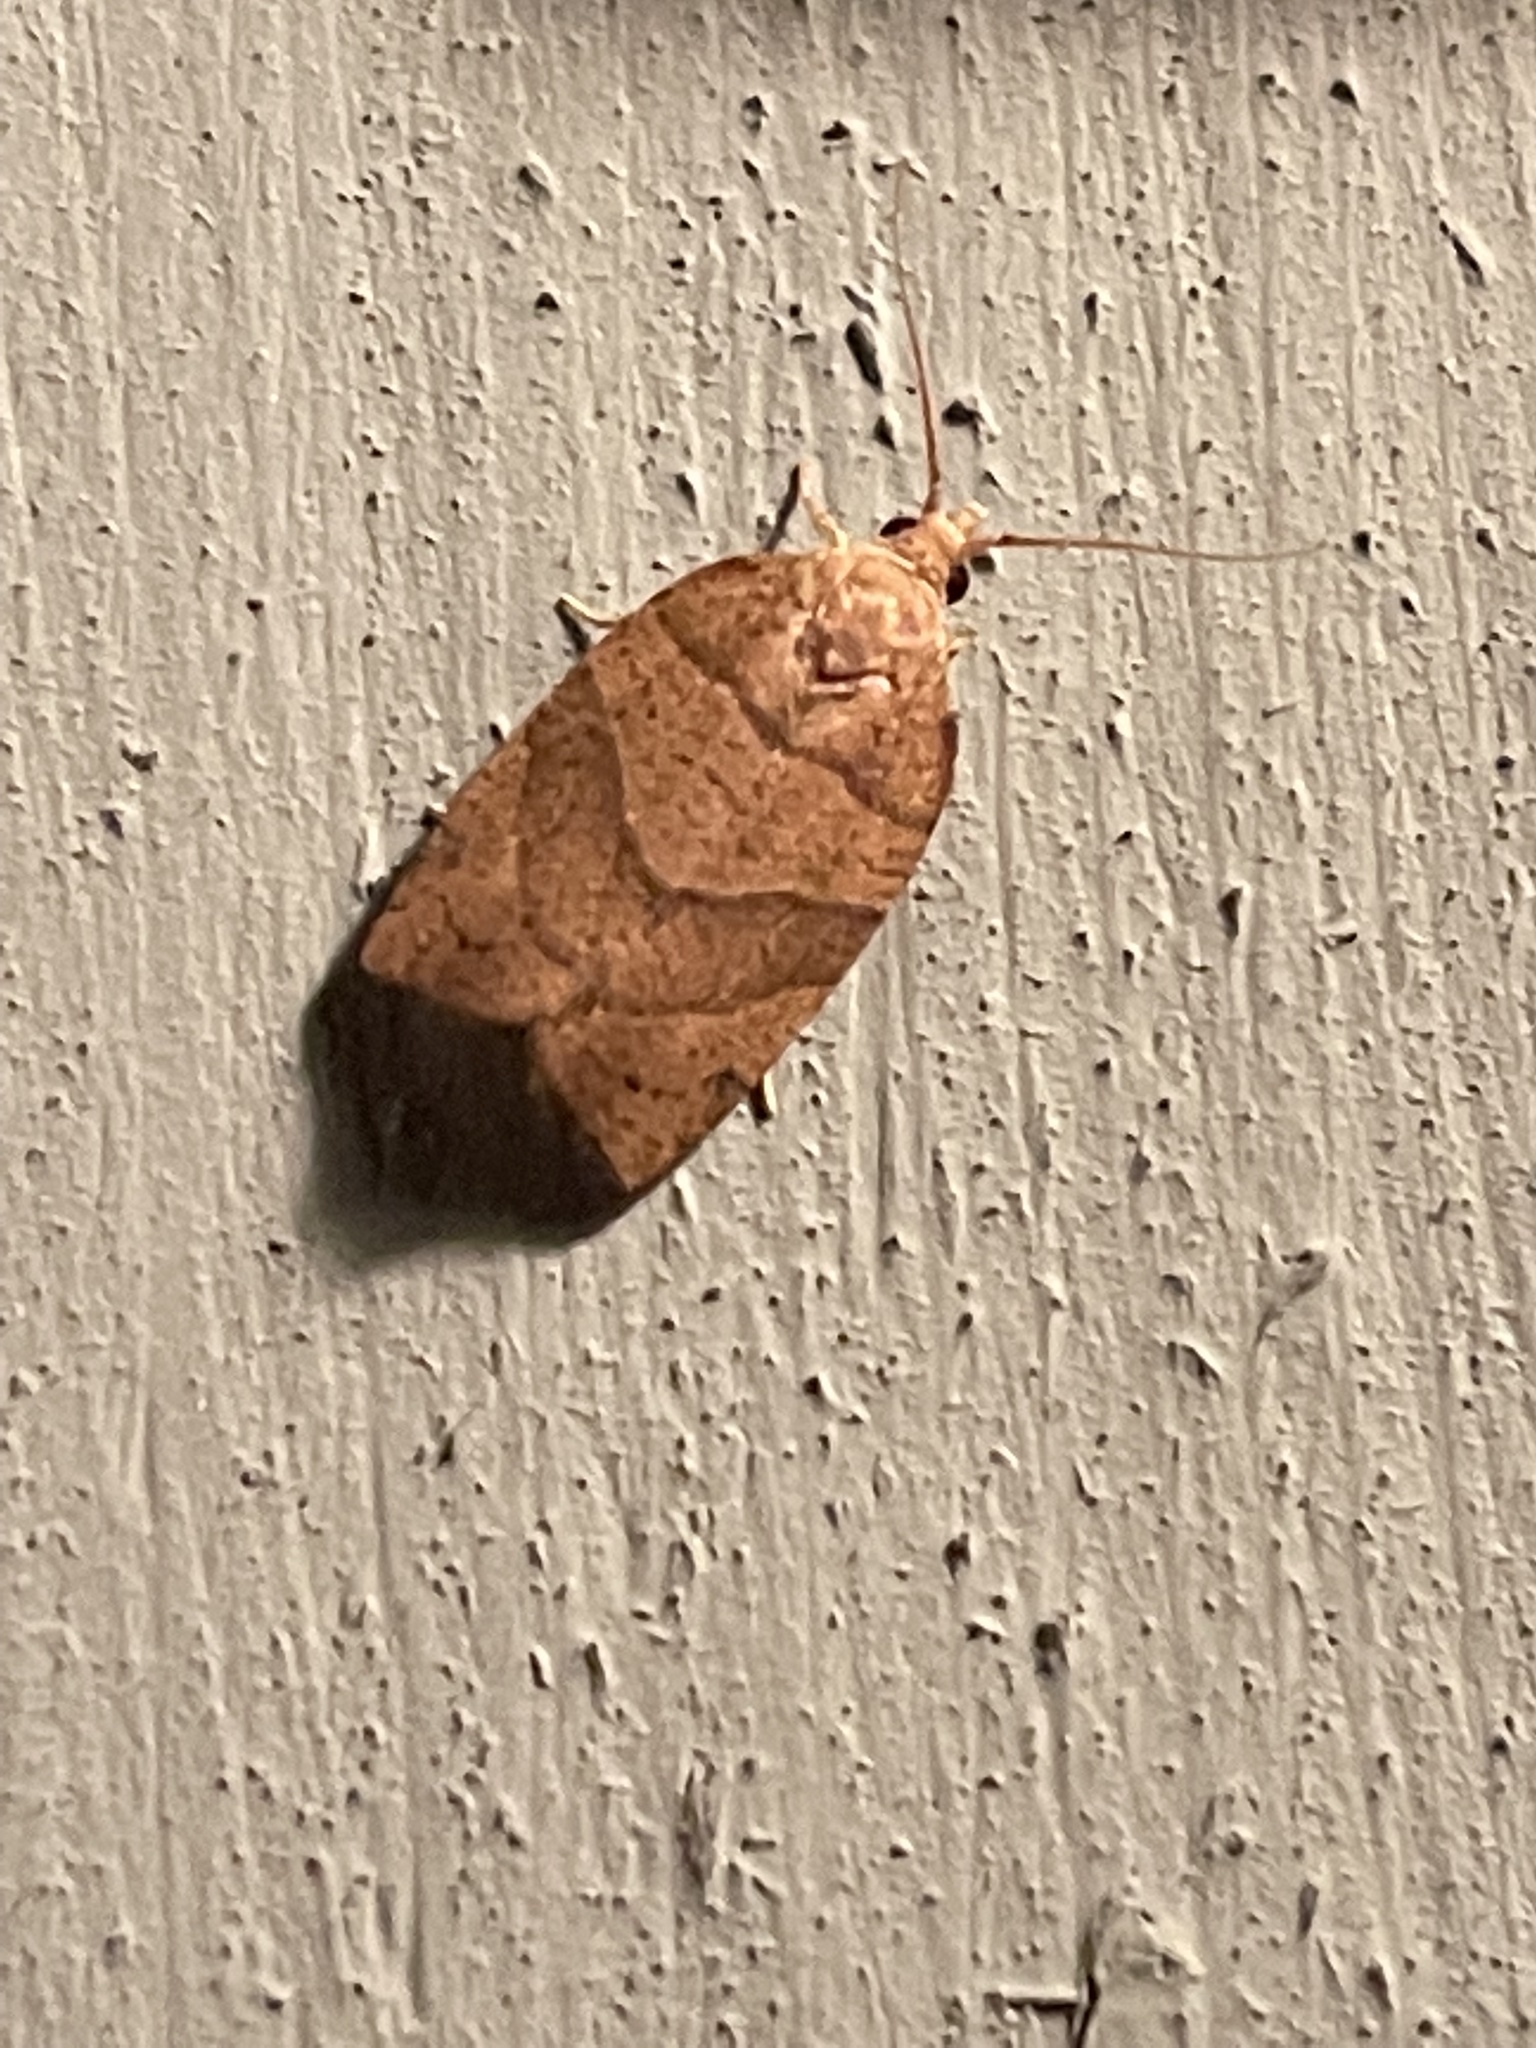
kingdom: Animalia
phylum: Arthropoda
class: Insecta
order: Lepidoptera
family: Tortricidae
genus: Pandemis
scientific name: Pandemis limitata
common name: Three-lined leafroller moth
